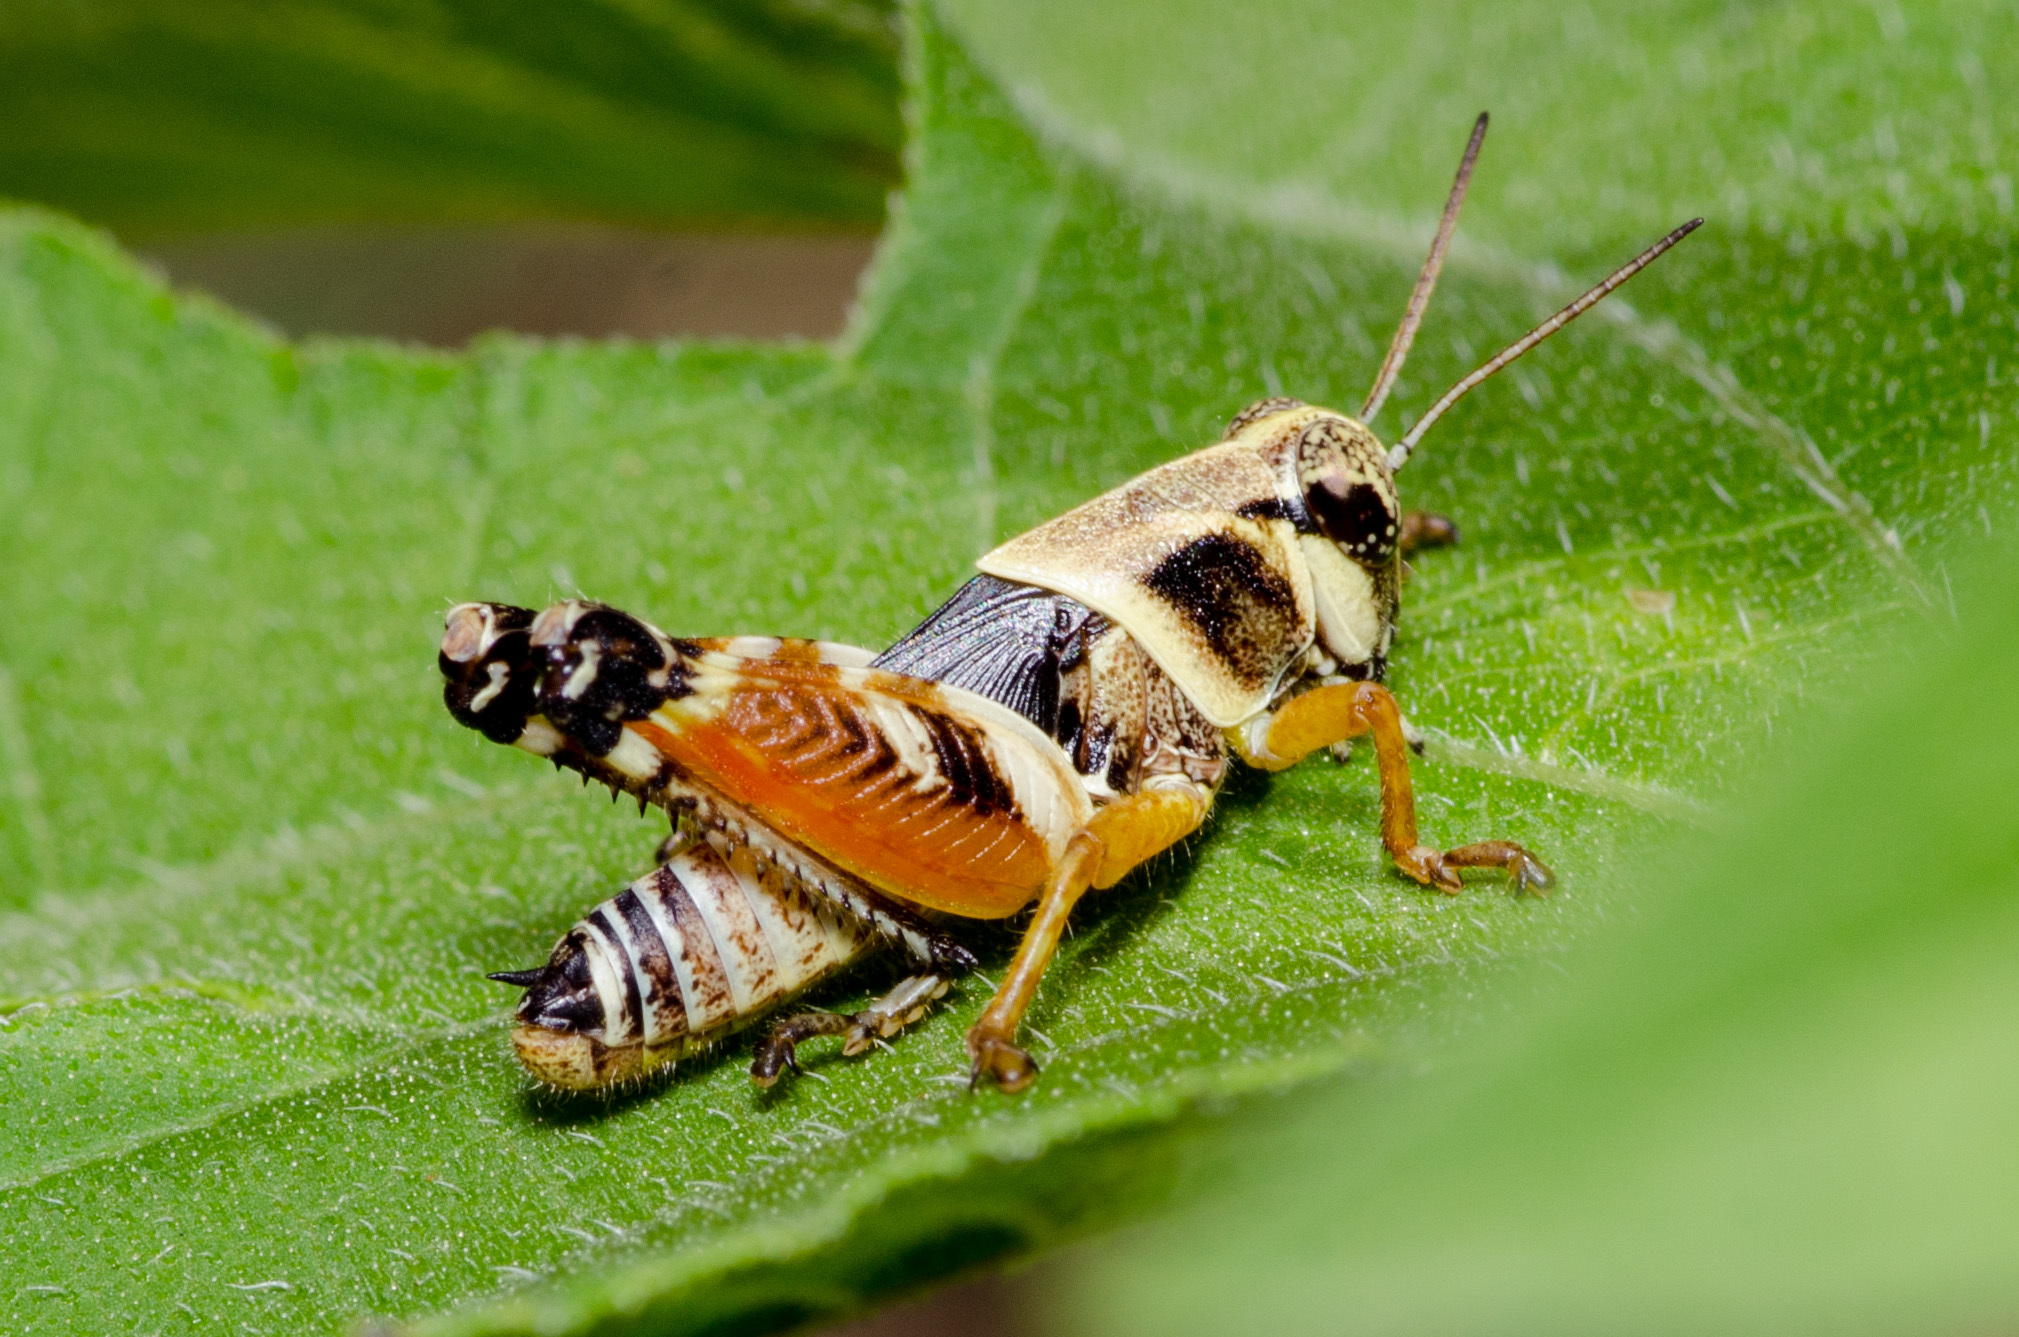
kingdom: Animalia
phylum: Arthropoda
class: Insecta
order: Orthoptera
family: Acrididae
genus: Aidemona
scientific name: Aidemona azteca
